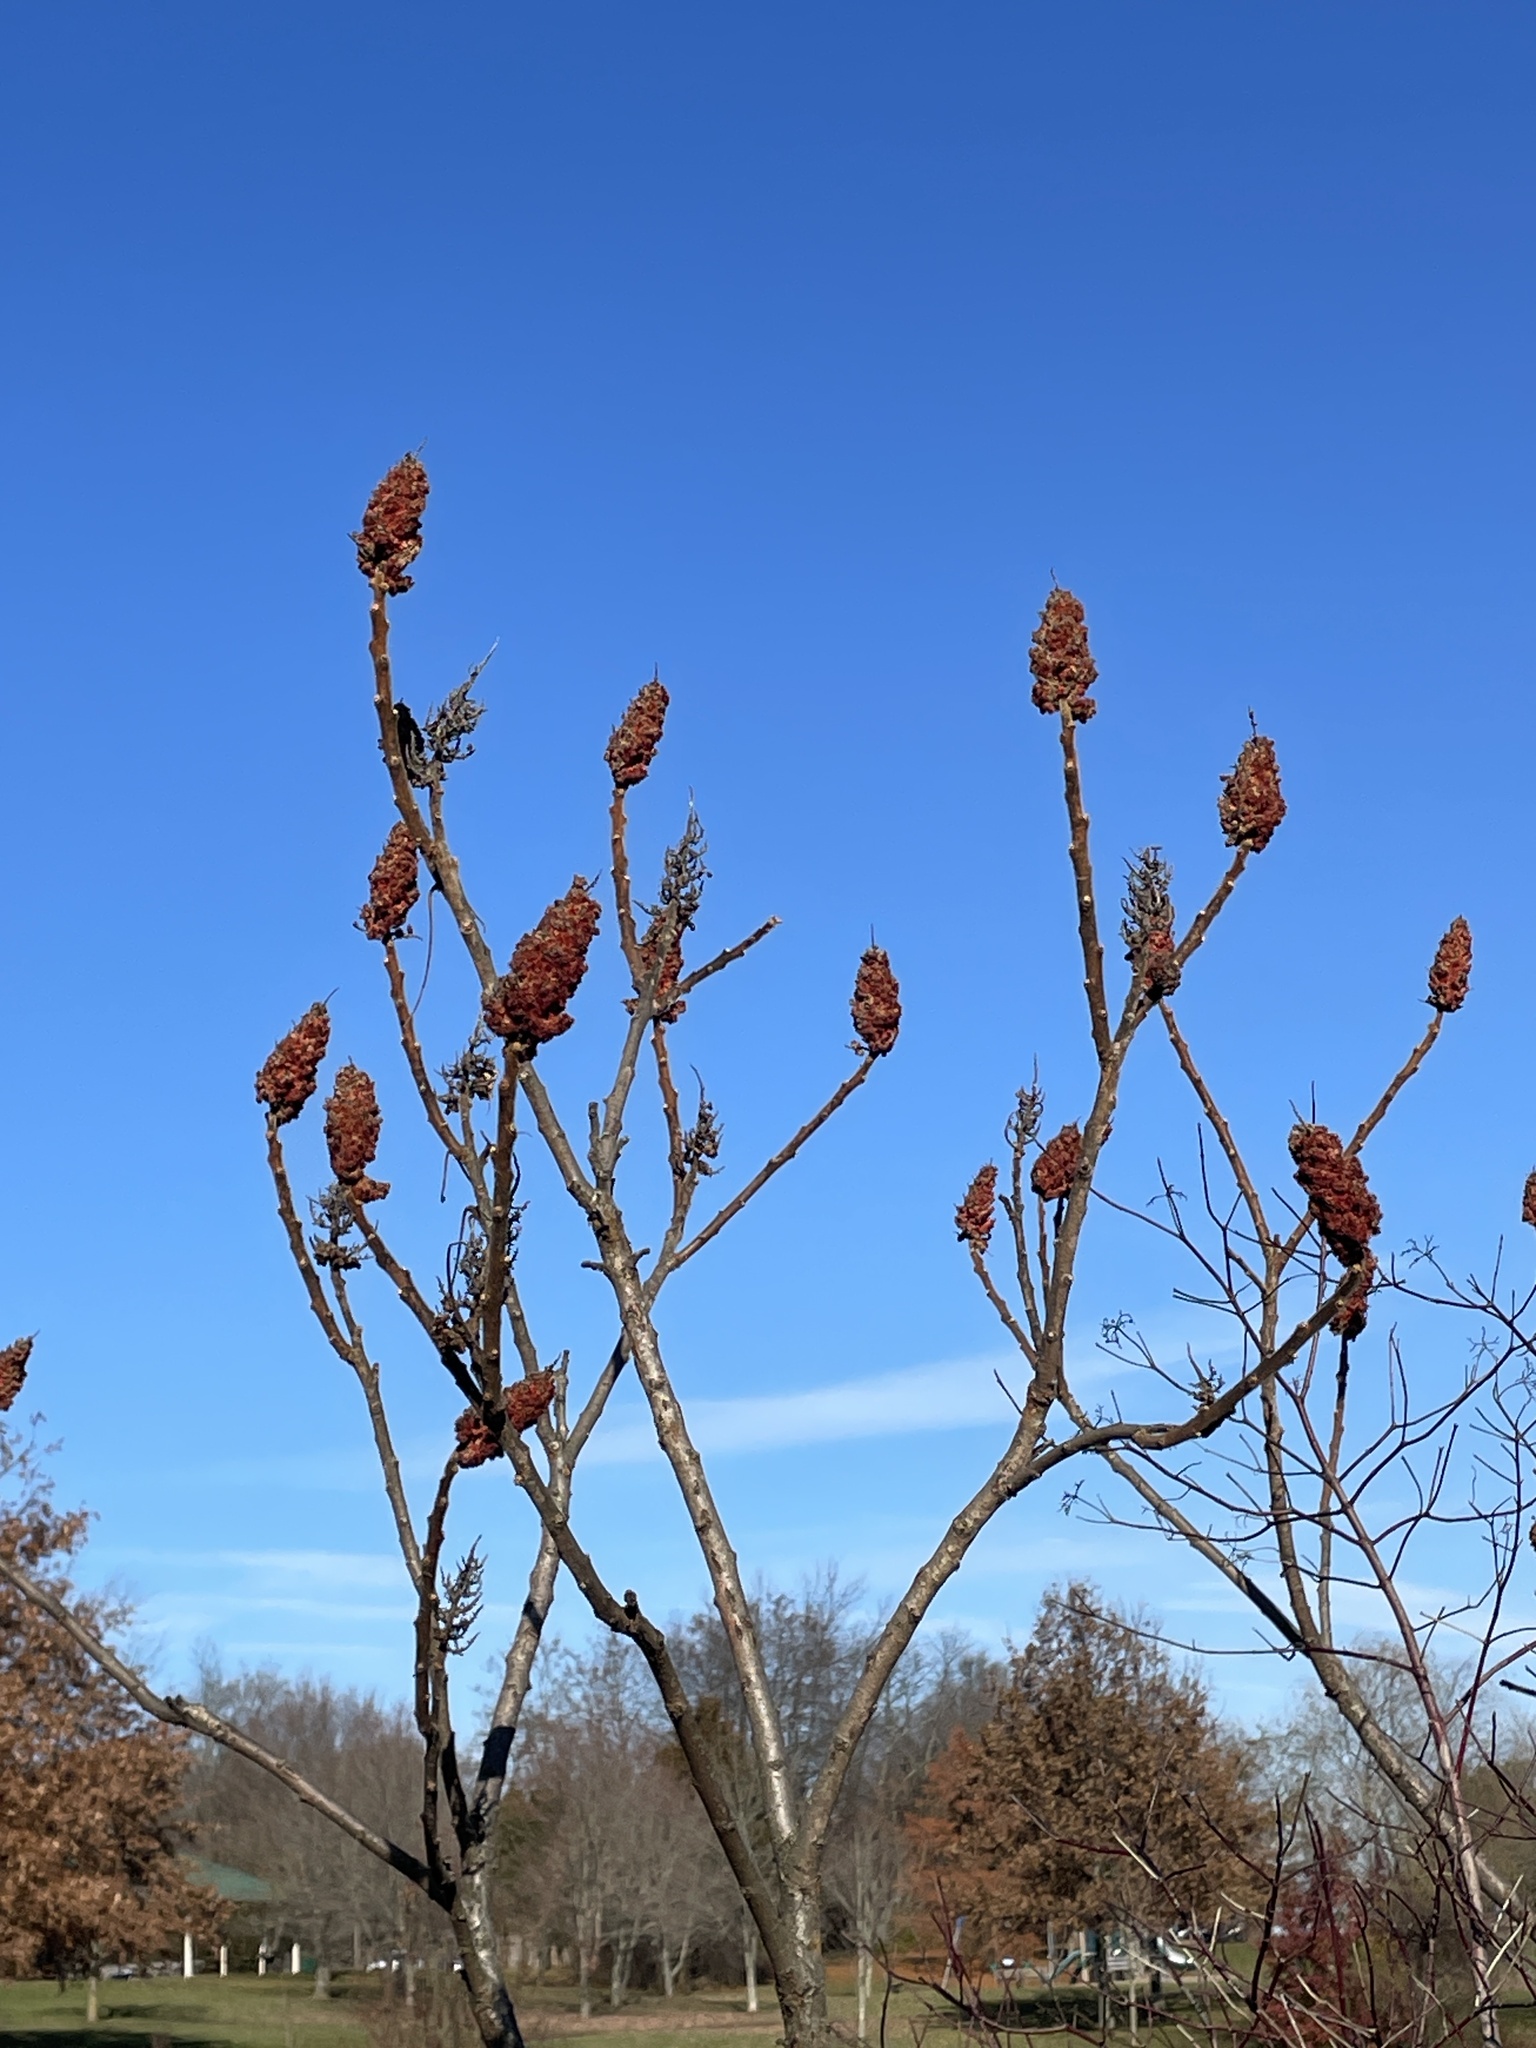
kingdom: Plantae
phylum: Tracheophyta
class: Magnoliopsida
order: Sapindales
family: Anacardiaceae
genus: Rhus
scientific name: Rhus typhina
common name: Staghorn sumac
